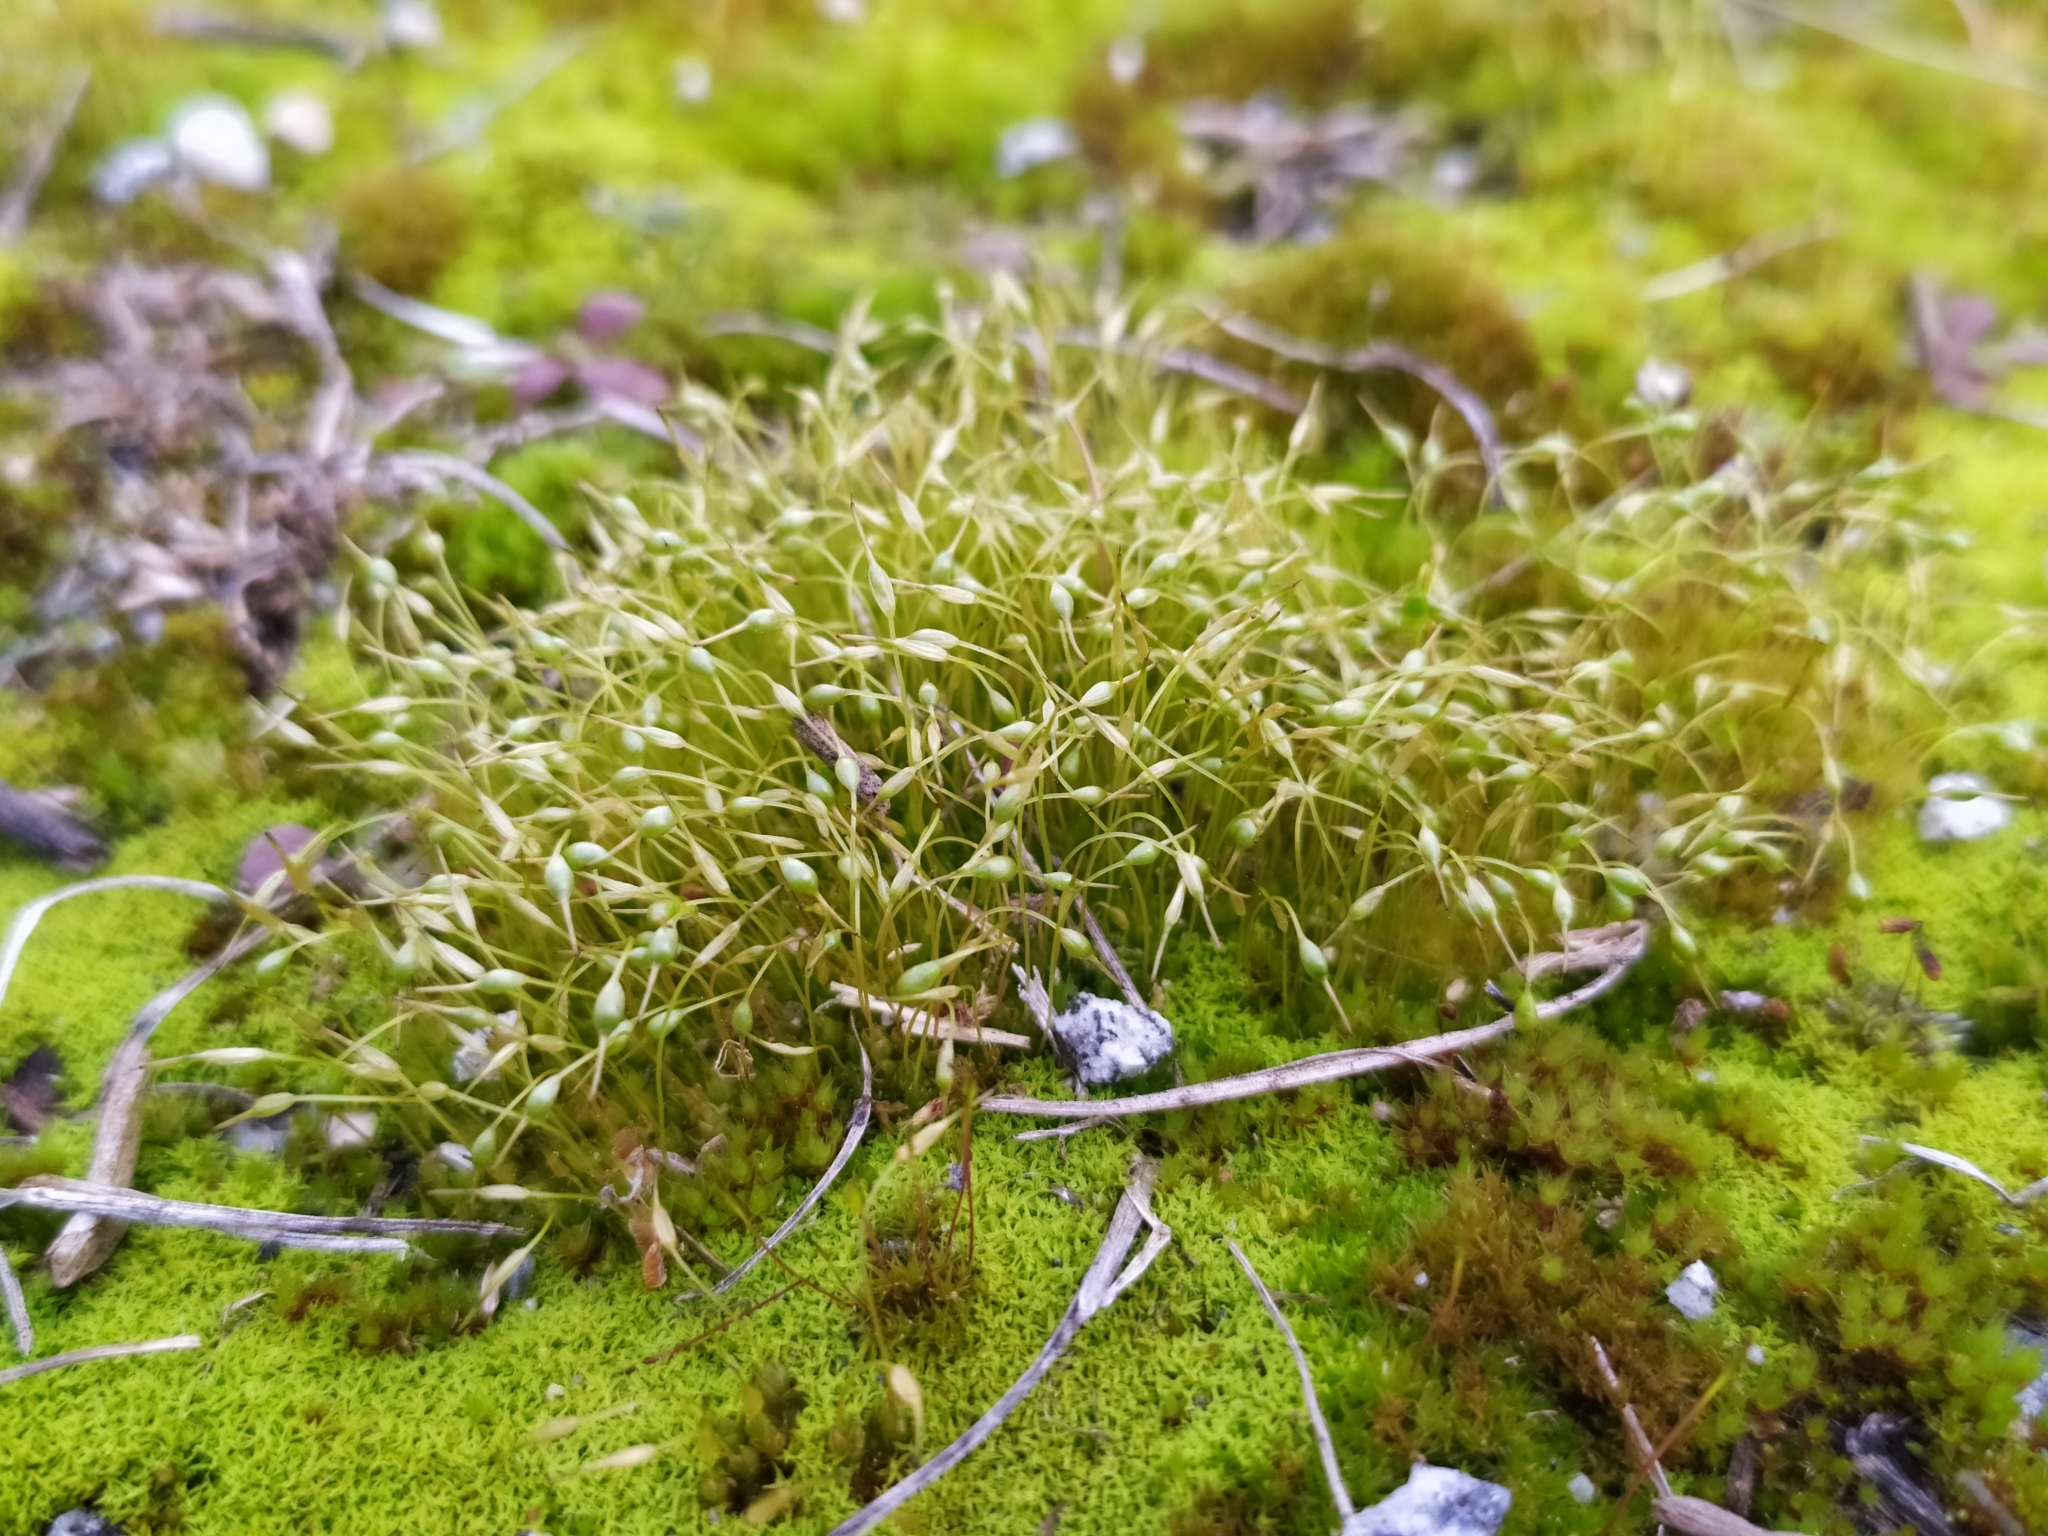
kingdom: Plantae
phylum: Bryophyta
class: Bryopsida
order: Funariales
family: Funariaceae
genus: Funaria
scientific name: Funaria hygrometrica
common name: Common cord moss
